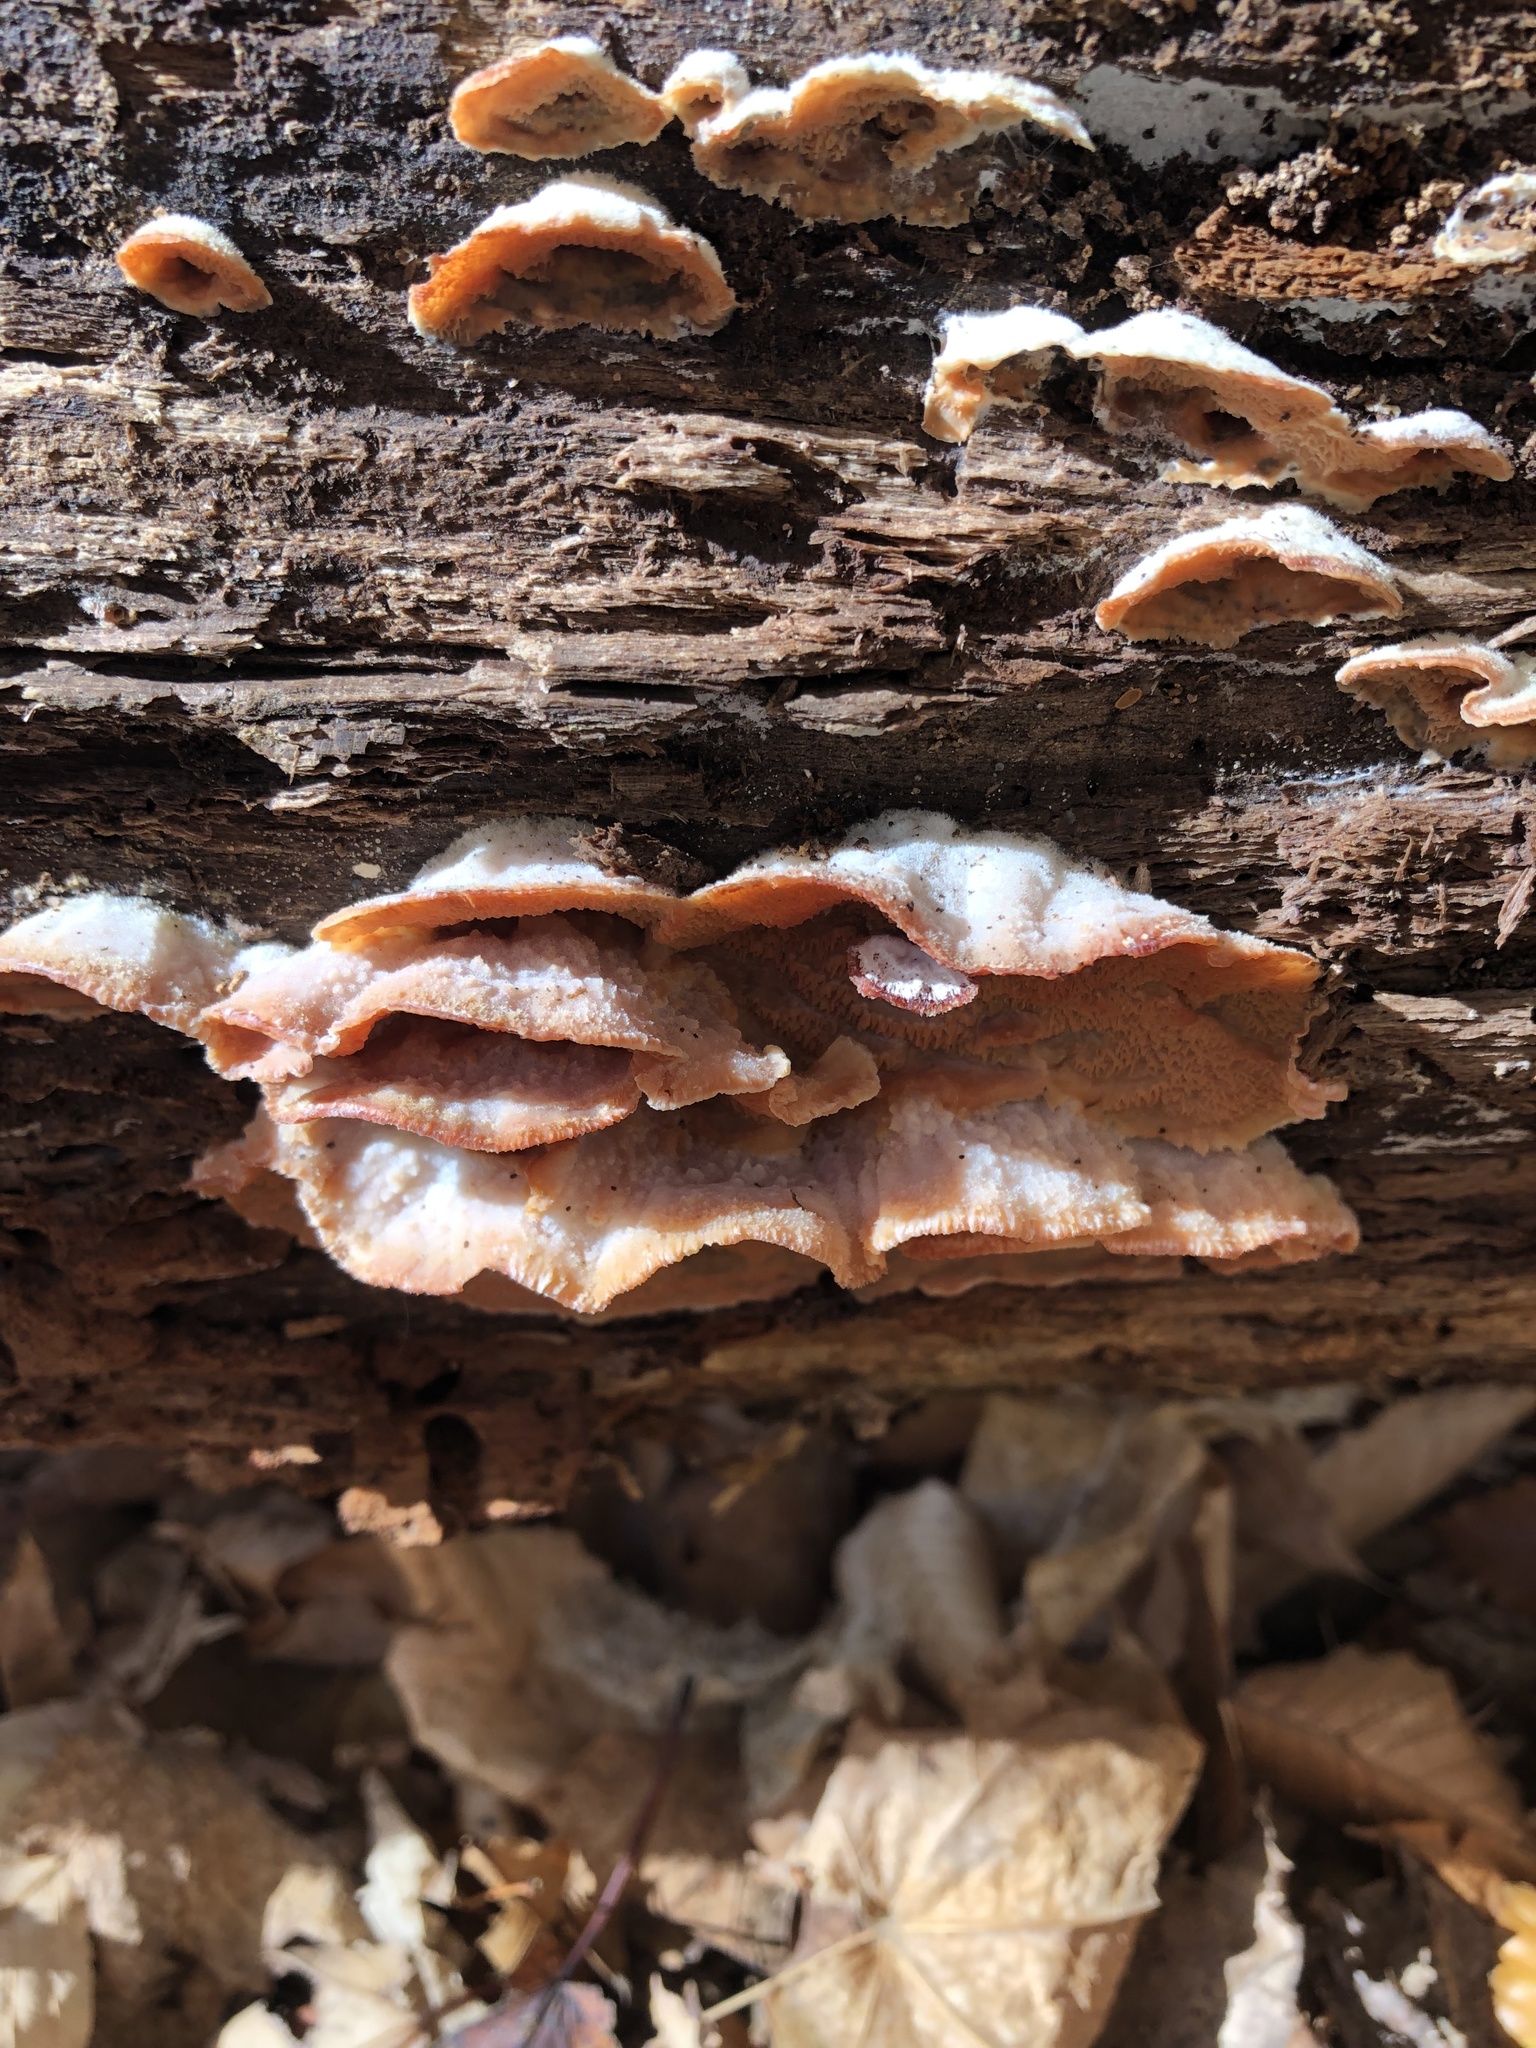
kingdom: Fungi
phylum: Basidiomycota
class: Agaricomycetes
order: Polyporales
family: Meruliaceae
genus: Phlebia
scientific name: Phlebia tremellosa
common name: Jelly rot
